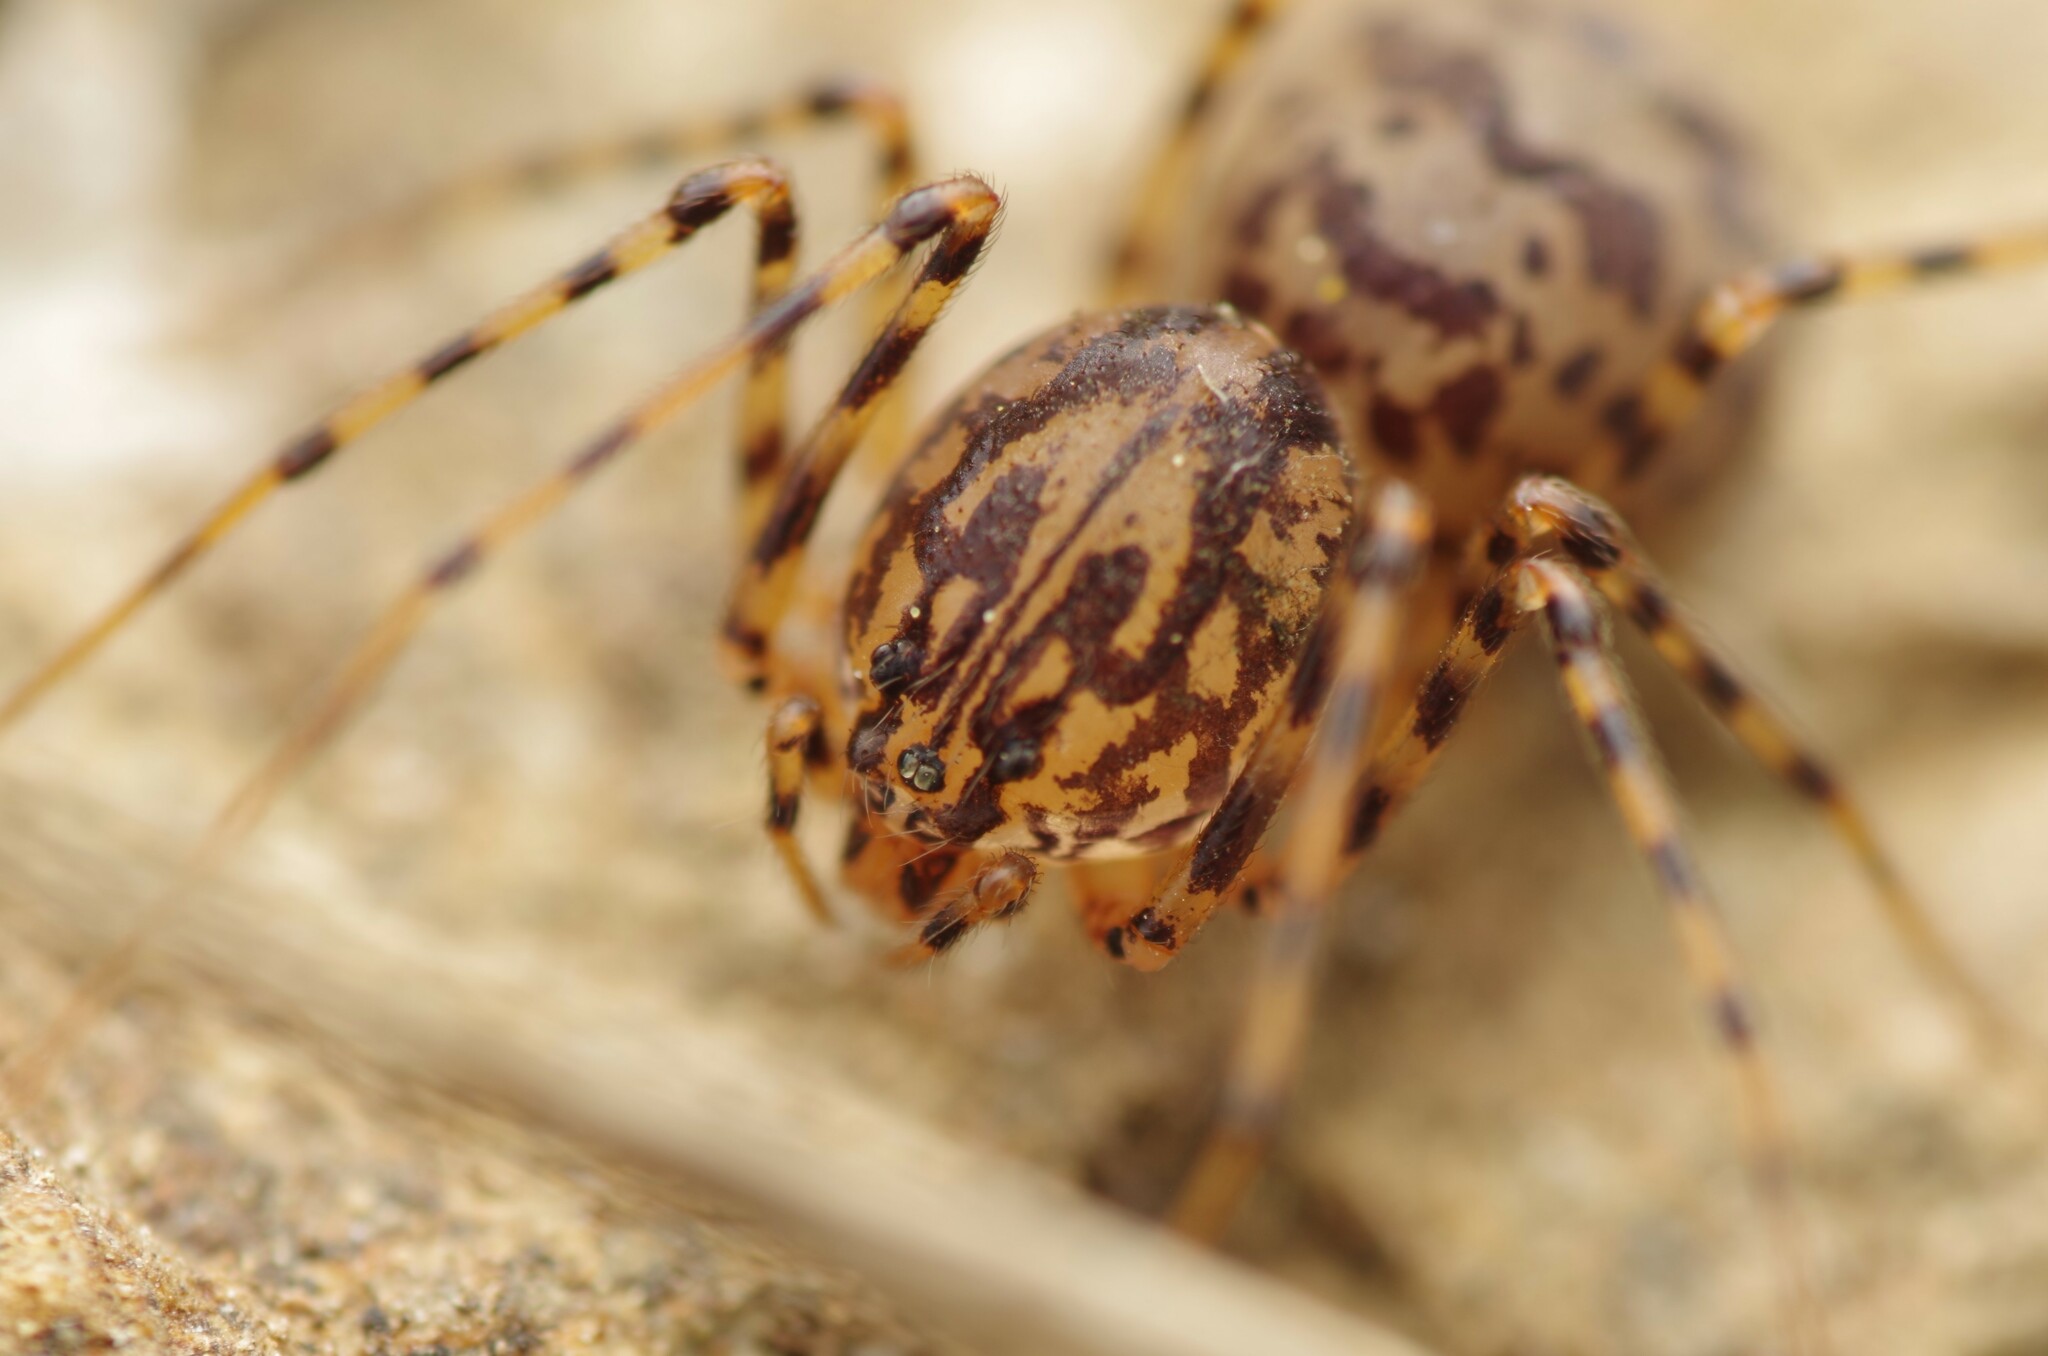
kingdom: Animalia
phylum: Arthropoda
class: Arachnida
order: Araneae
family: Scytodidae
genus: Scytodes
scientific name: Scytodes thoracica
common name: Spitting spider
